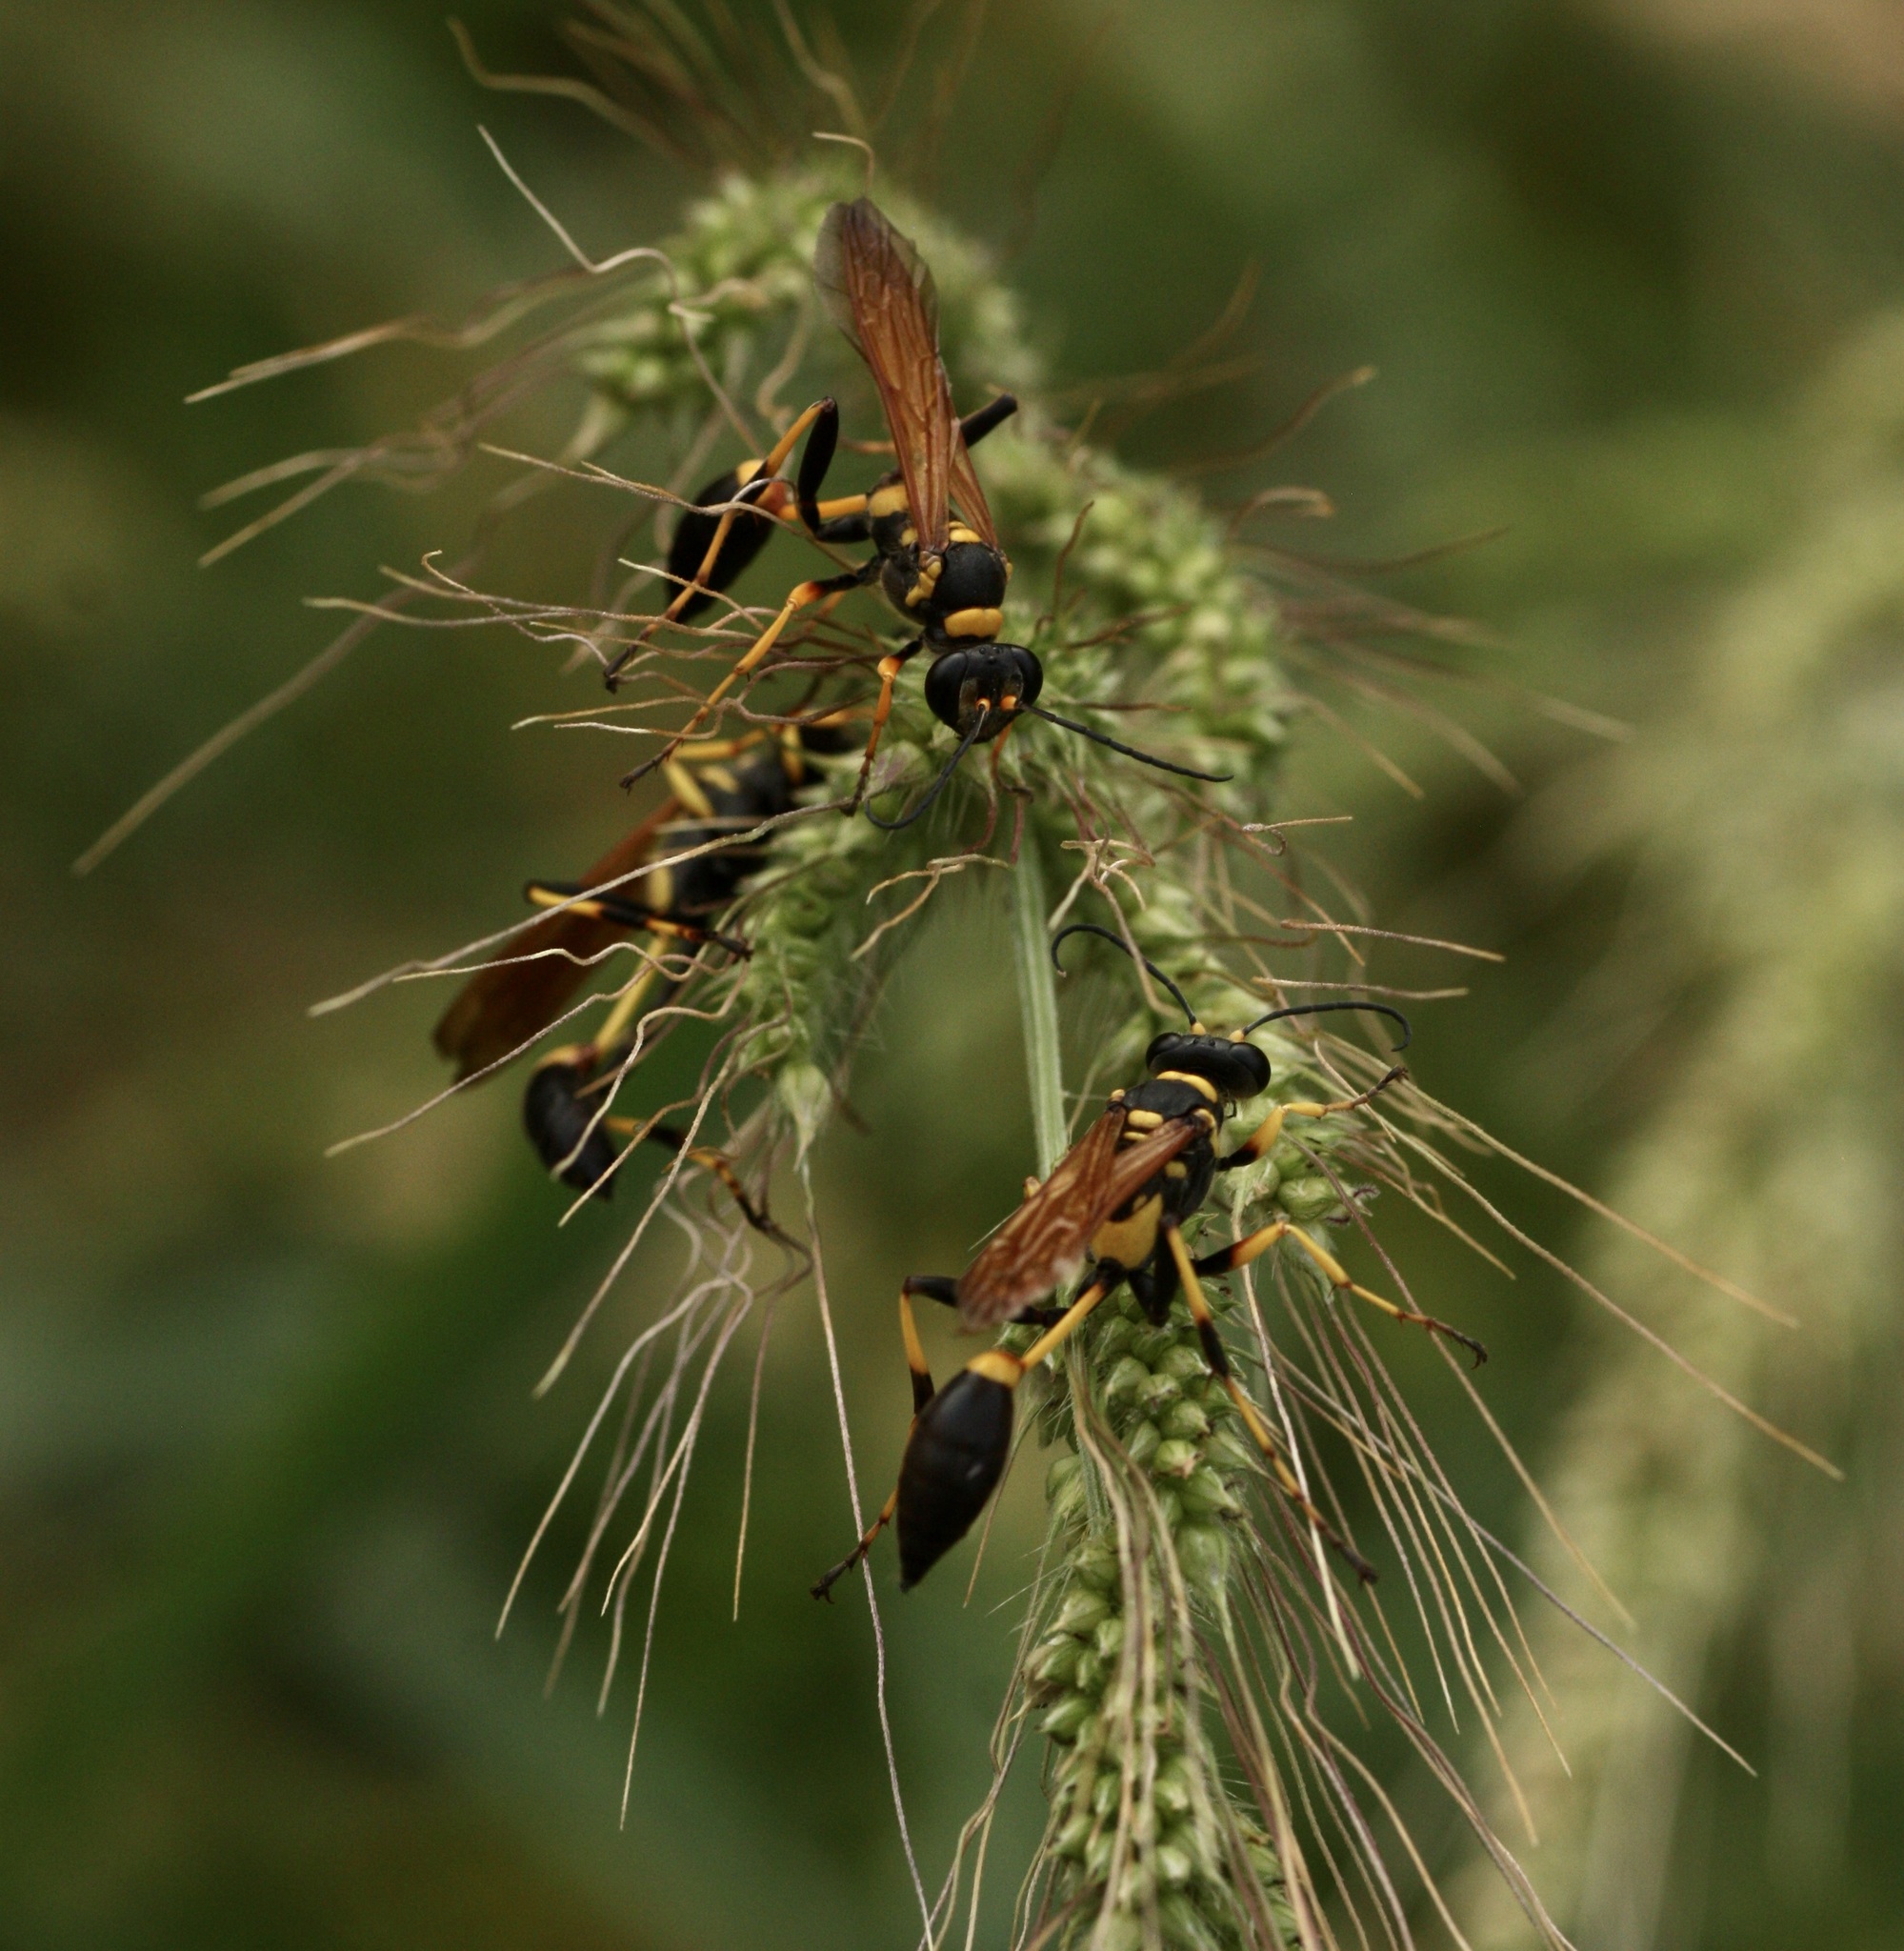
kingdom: Animalia
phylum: Arthropoda
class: Insecta
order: Hymenoptera
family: Sphecidae
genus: Sceliphron
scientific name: Sceliphron caementarium
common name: Mud dauber
